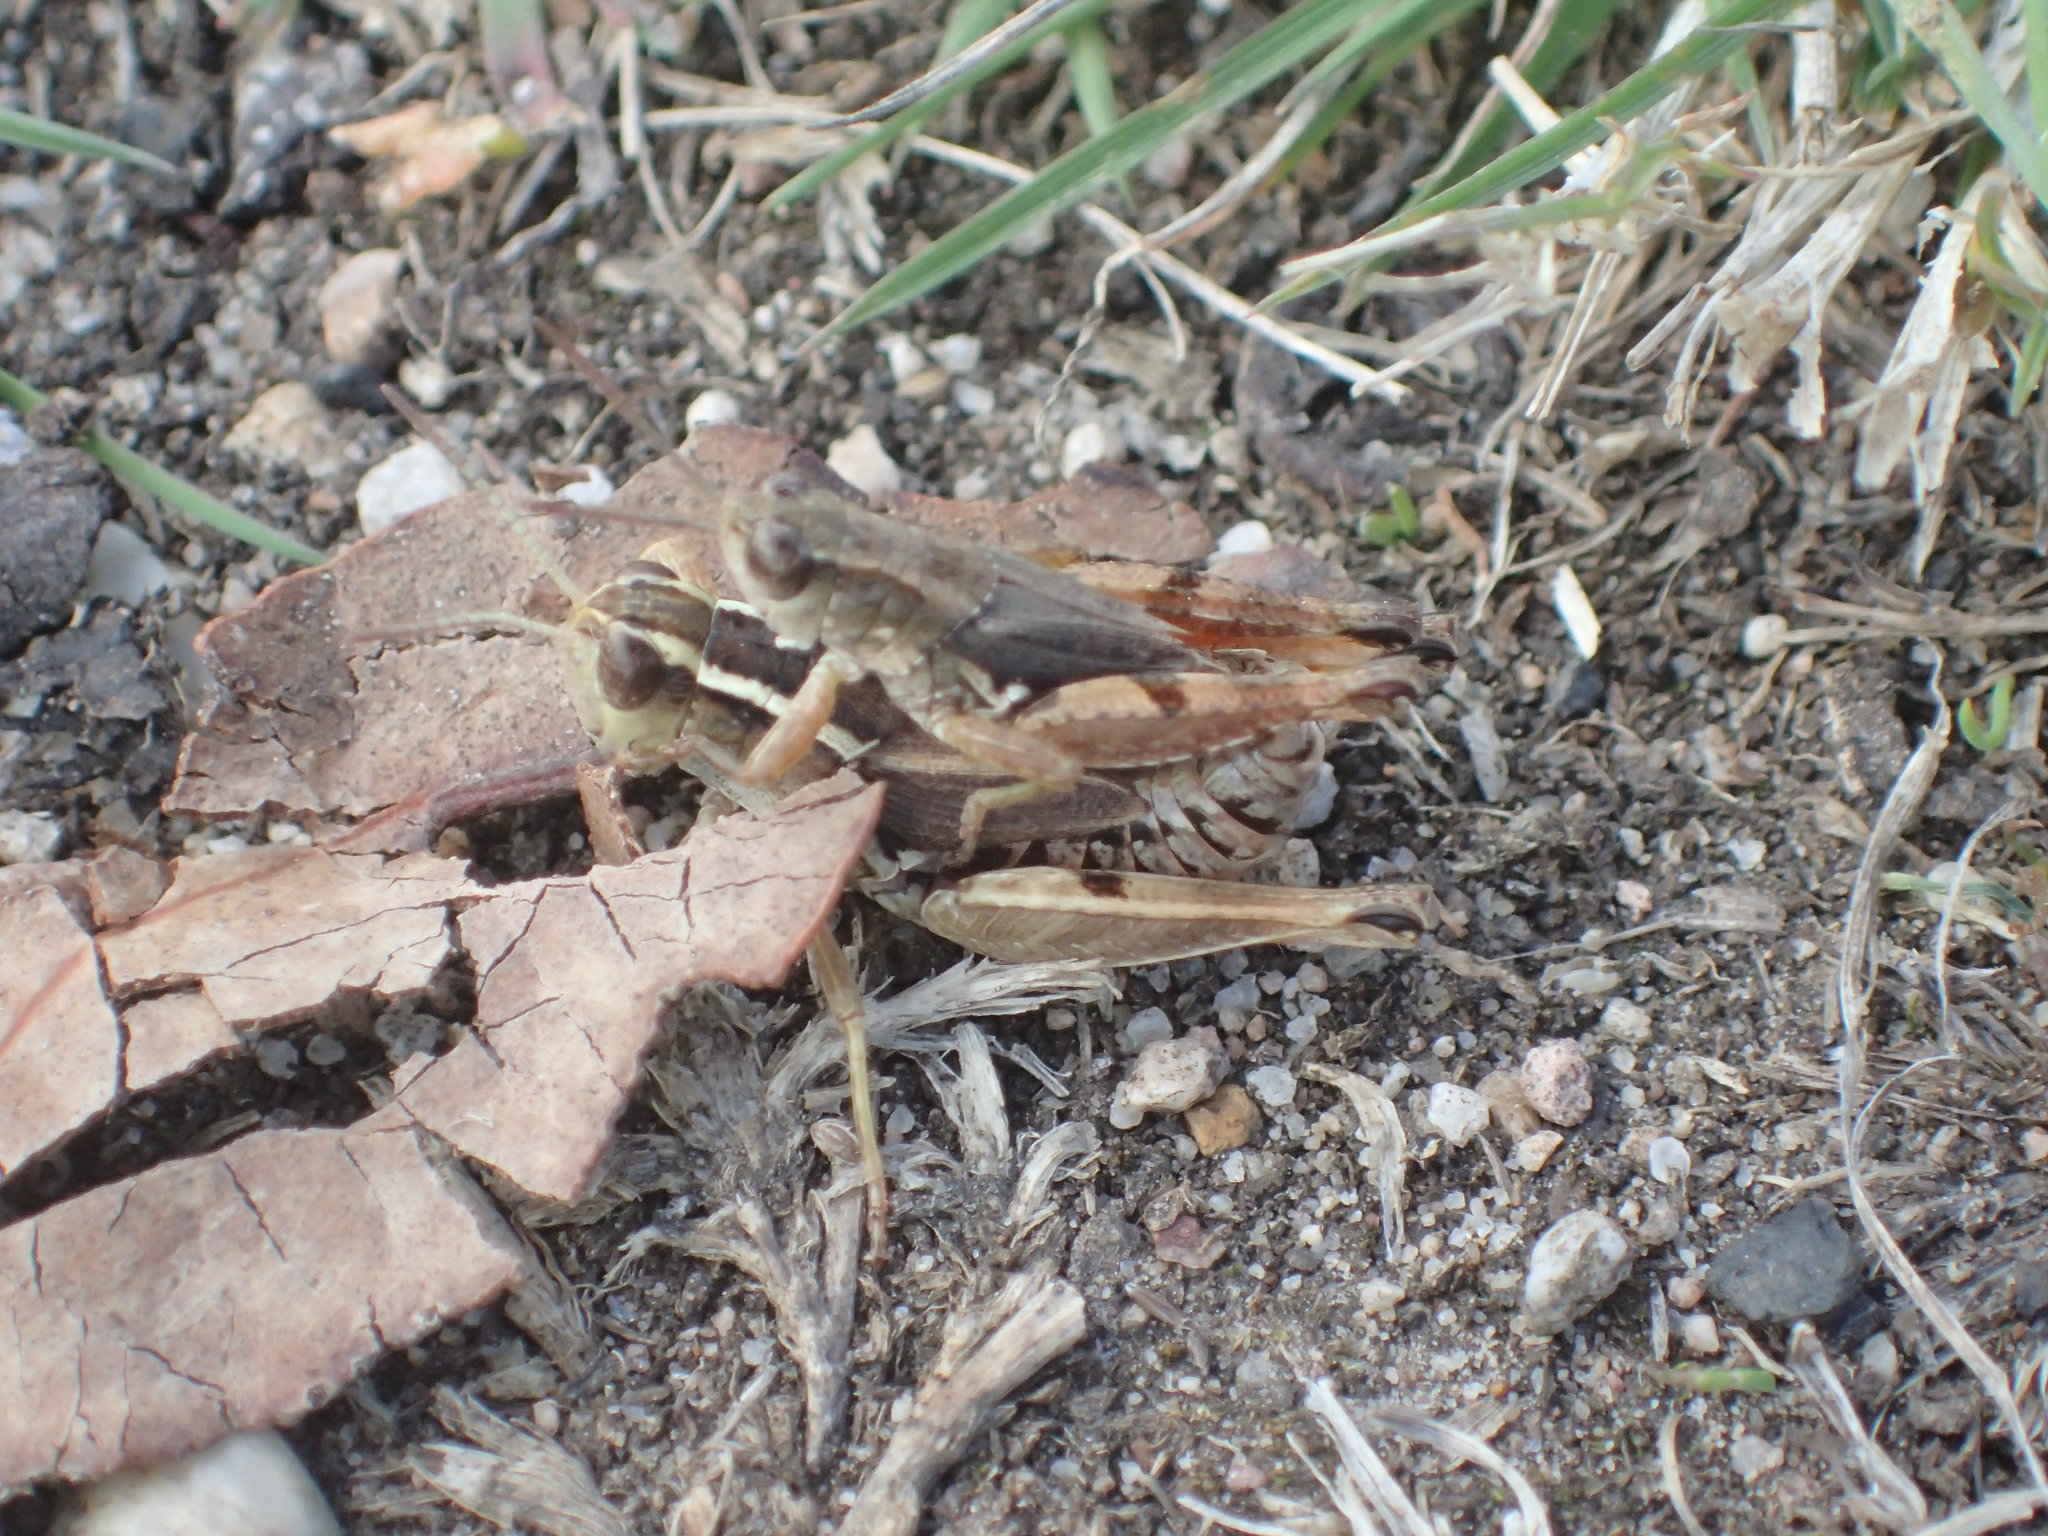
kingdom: Animalia
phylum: Arthropoda
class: Insecta
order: Orthoptera
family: Acrididae
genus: Phaulacridium
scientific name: Phaulacridium vittatum
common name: Wingless grasshopper
